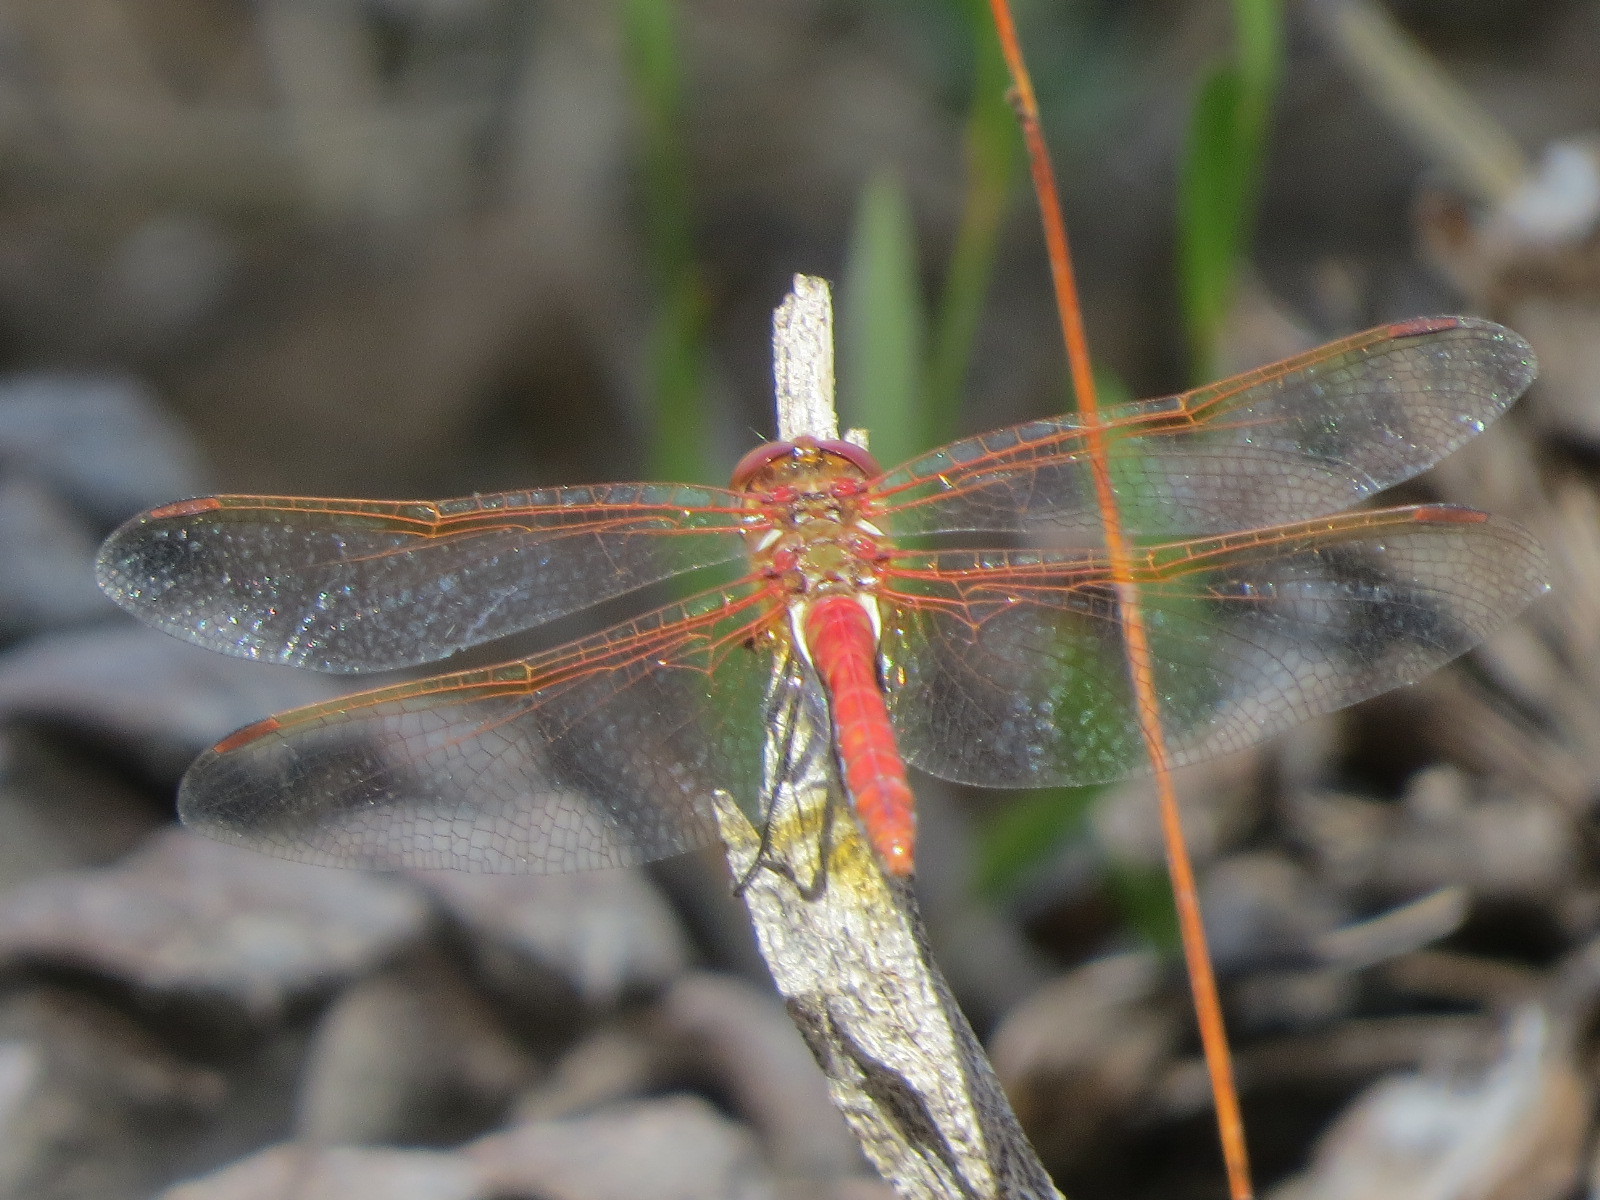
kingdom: Animalia
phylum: Arthropoda
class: Insecta
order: Odonata
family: Libellulidae
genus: Sympetrum
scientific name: Sympetrum madidum
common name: Red-veined meadowhawk
